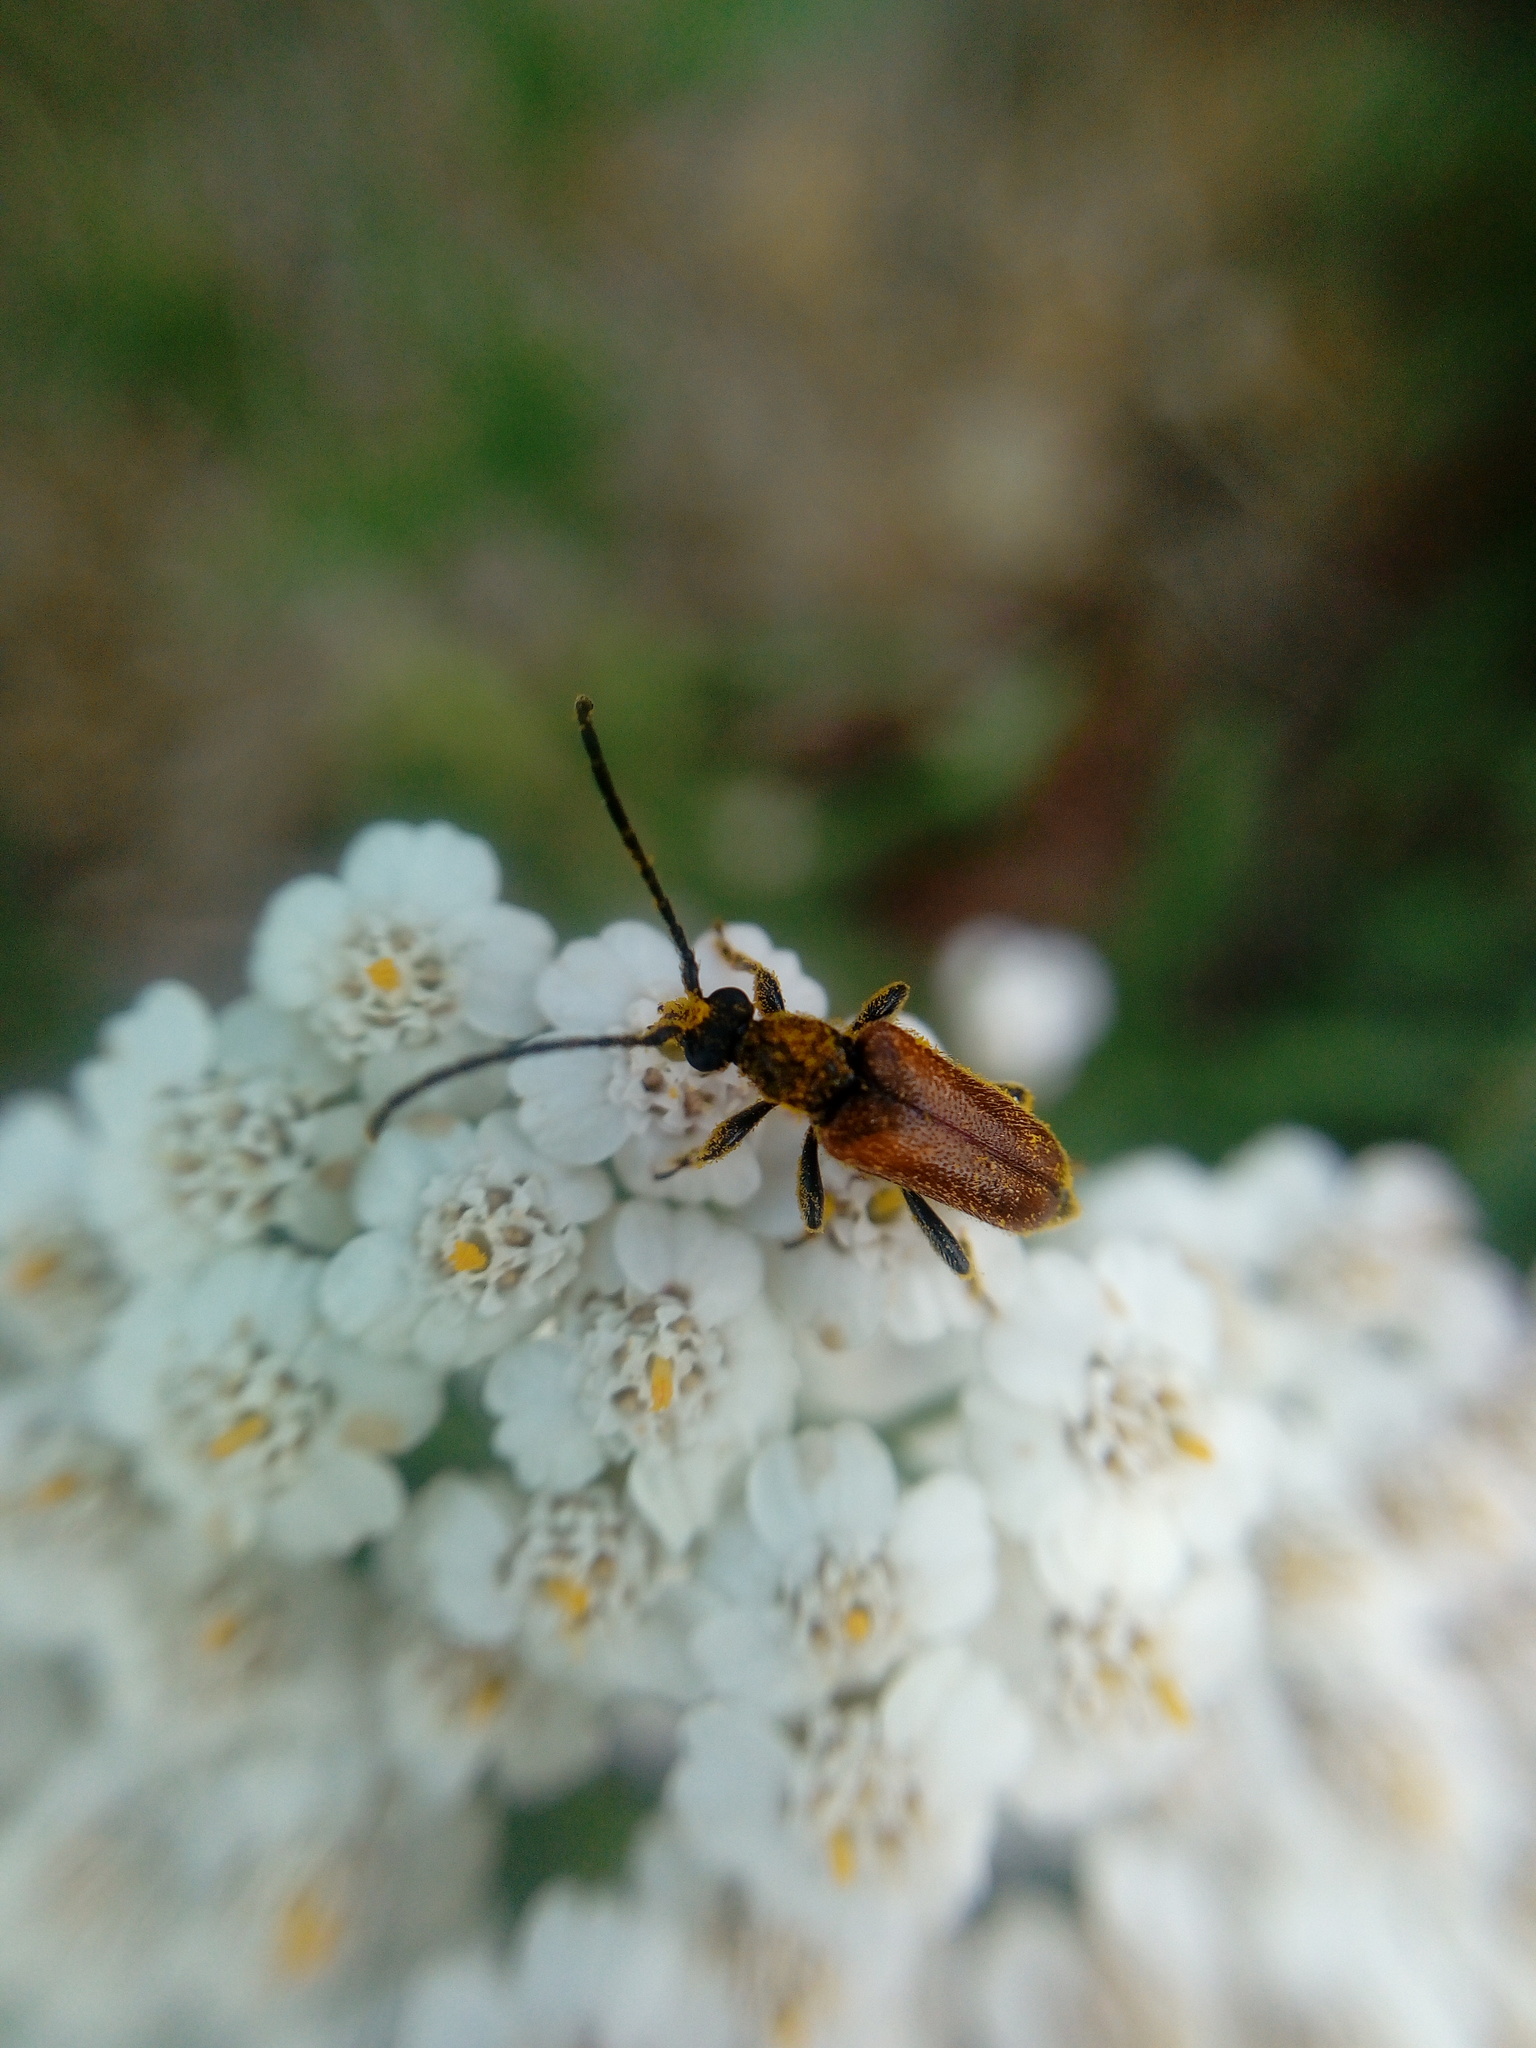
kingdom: Animalia
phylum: Arthropoda
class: Insecta
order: Coleoptera
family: Cerambycidae
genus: Pseudovadonia
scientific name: Pseudovadonia livida
